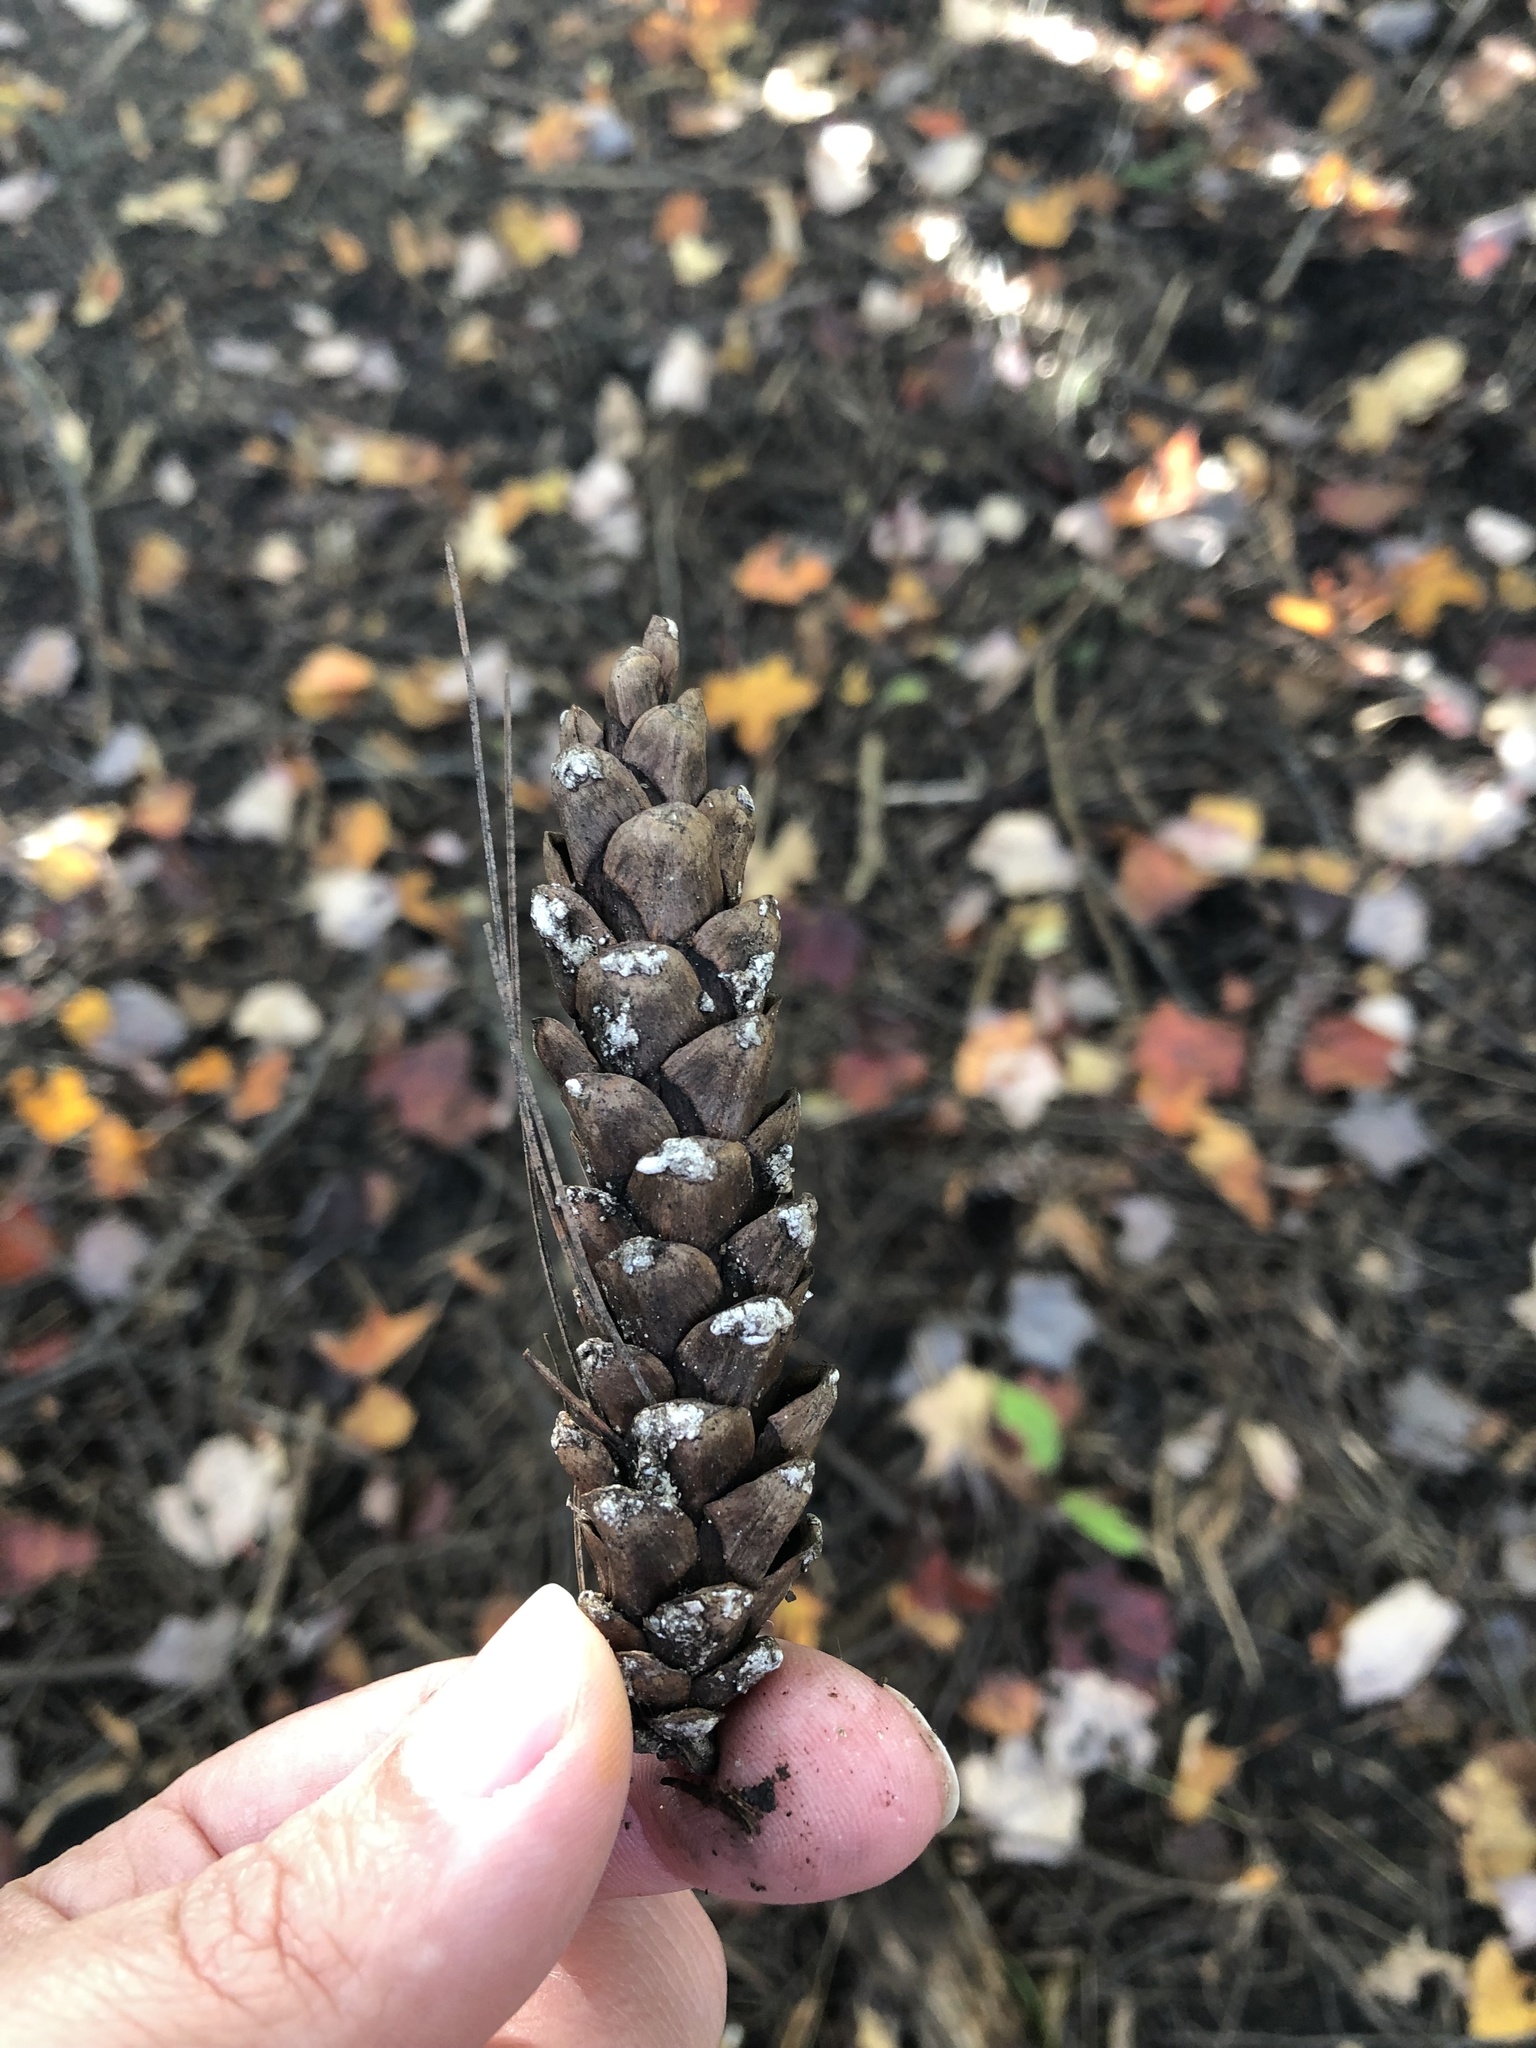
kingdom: Plantae
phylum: Tracheophyta
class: Pinopsida
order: Pinales
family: Pinaceae
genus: Pinus
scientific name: Pinus strobus
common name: Weymouth pine
